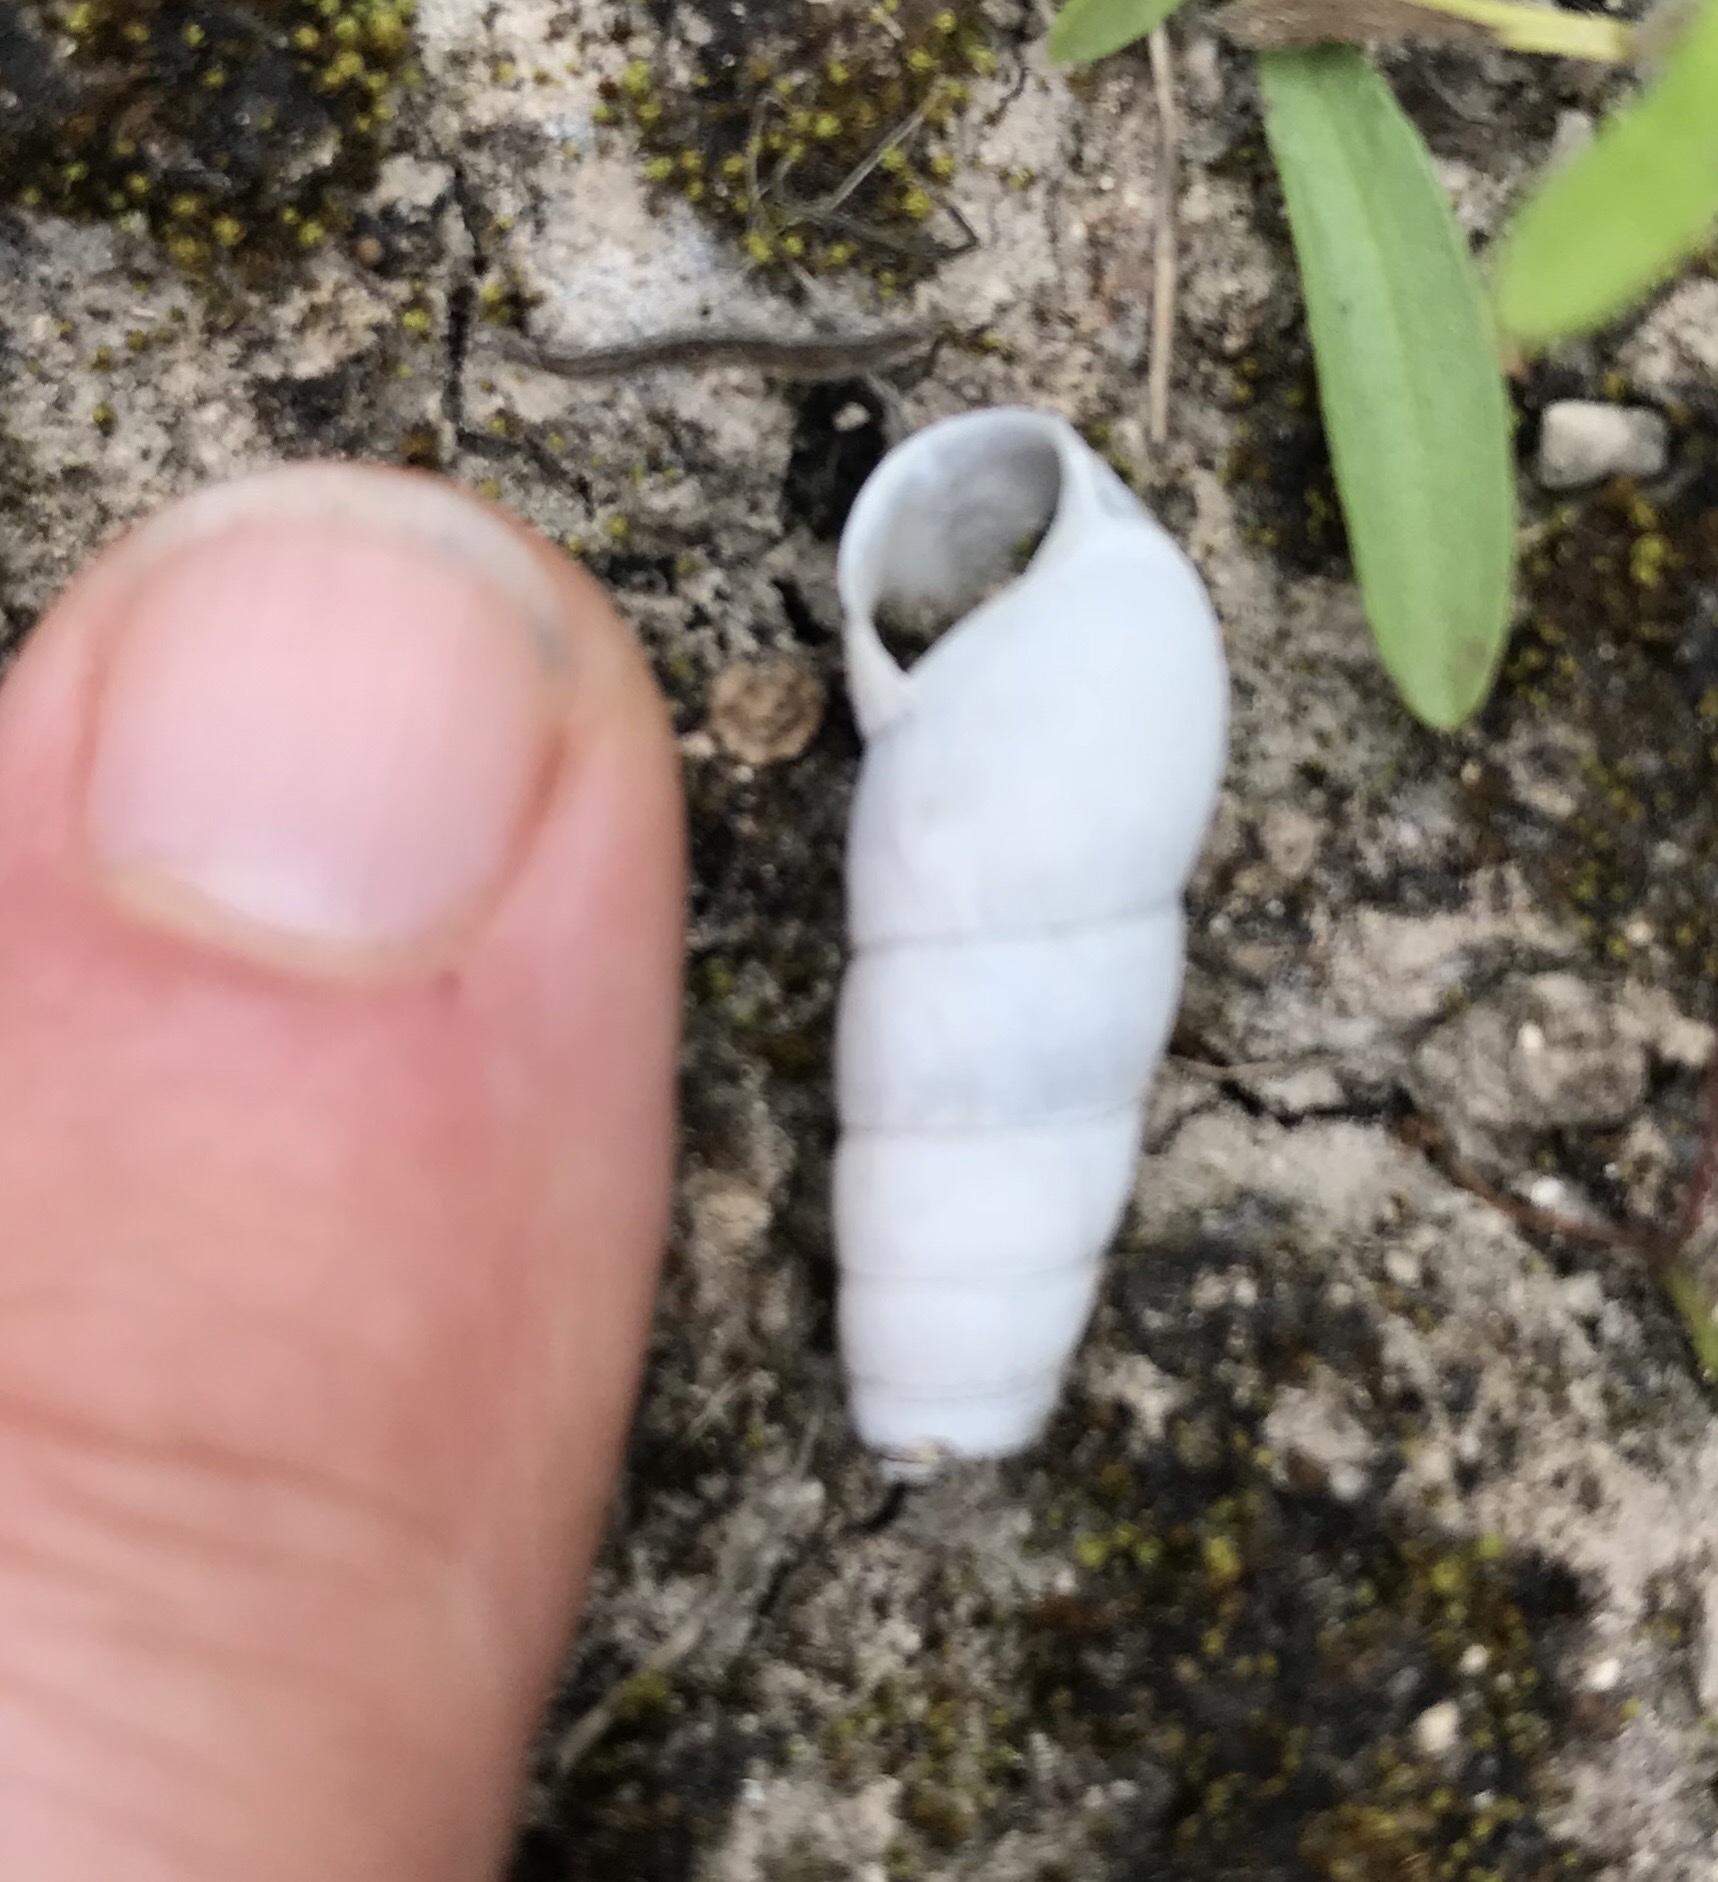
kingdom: Animalia
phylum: Mollusca
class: Gastropoda
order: Stylommatophora
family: Achatinidae
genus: Rumina
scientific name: Rumina decollata
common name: Decollate snail
